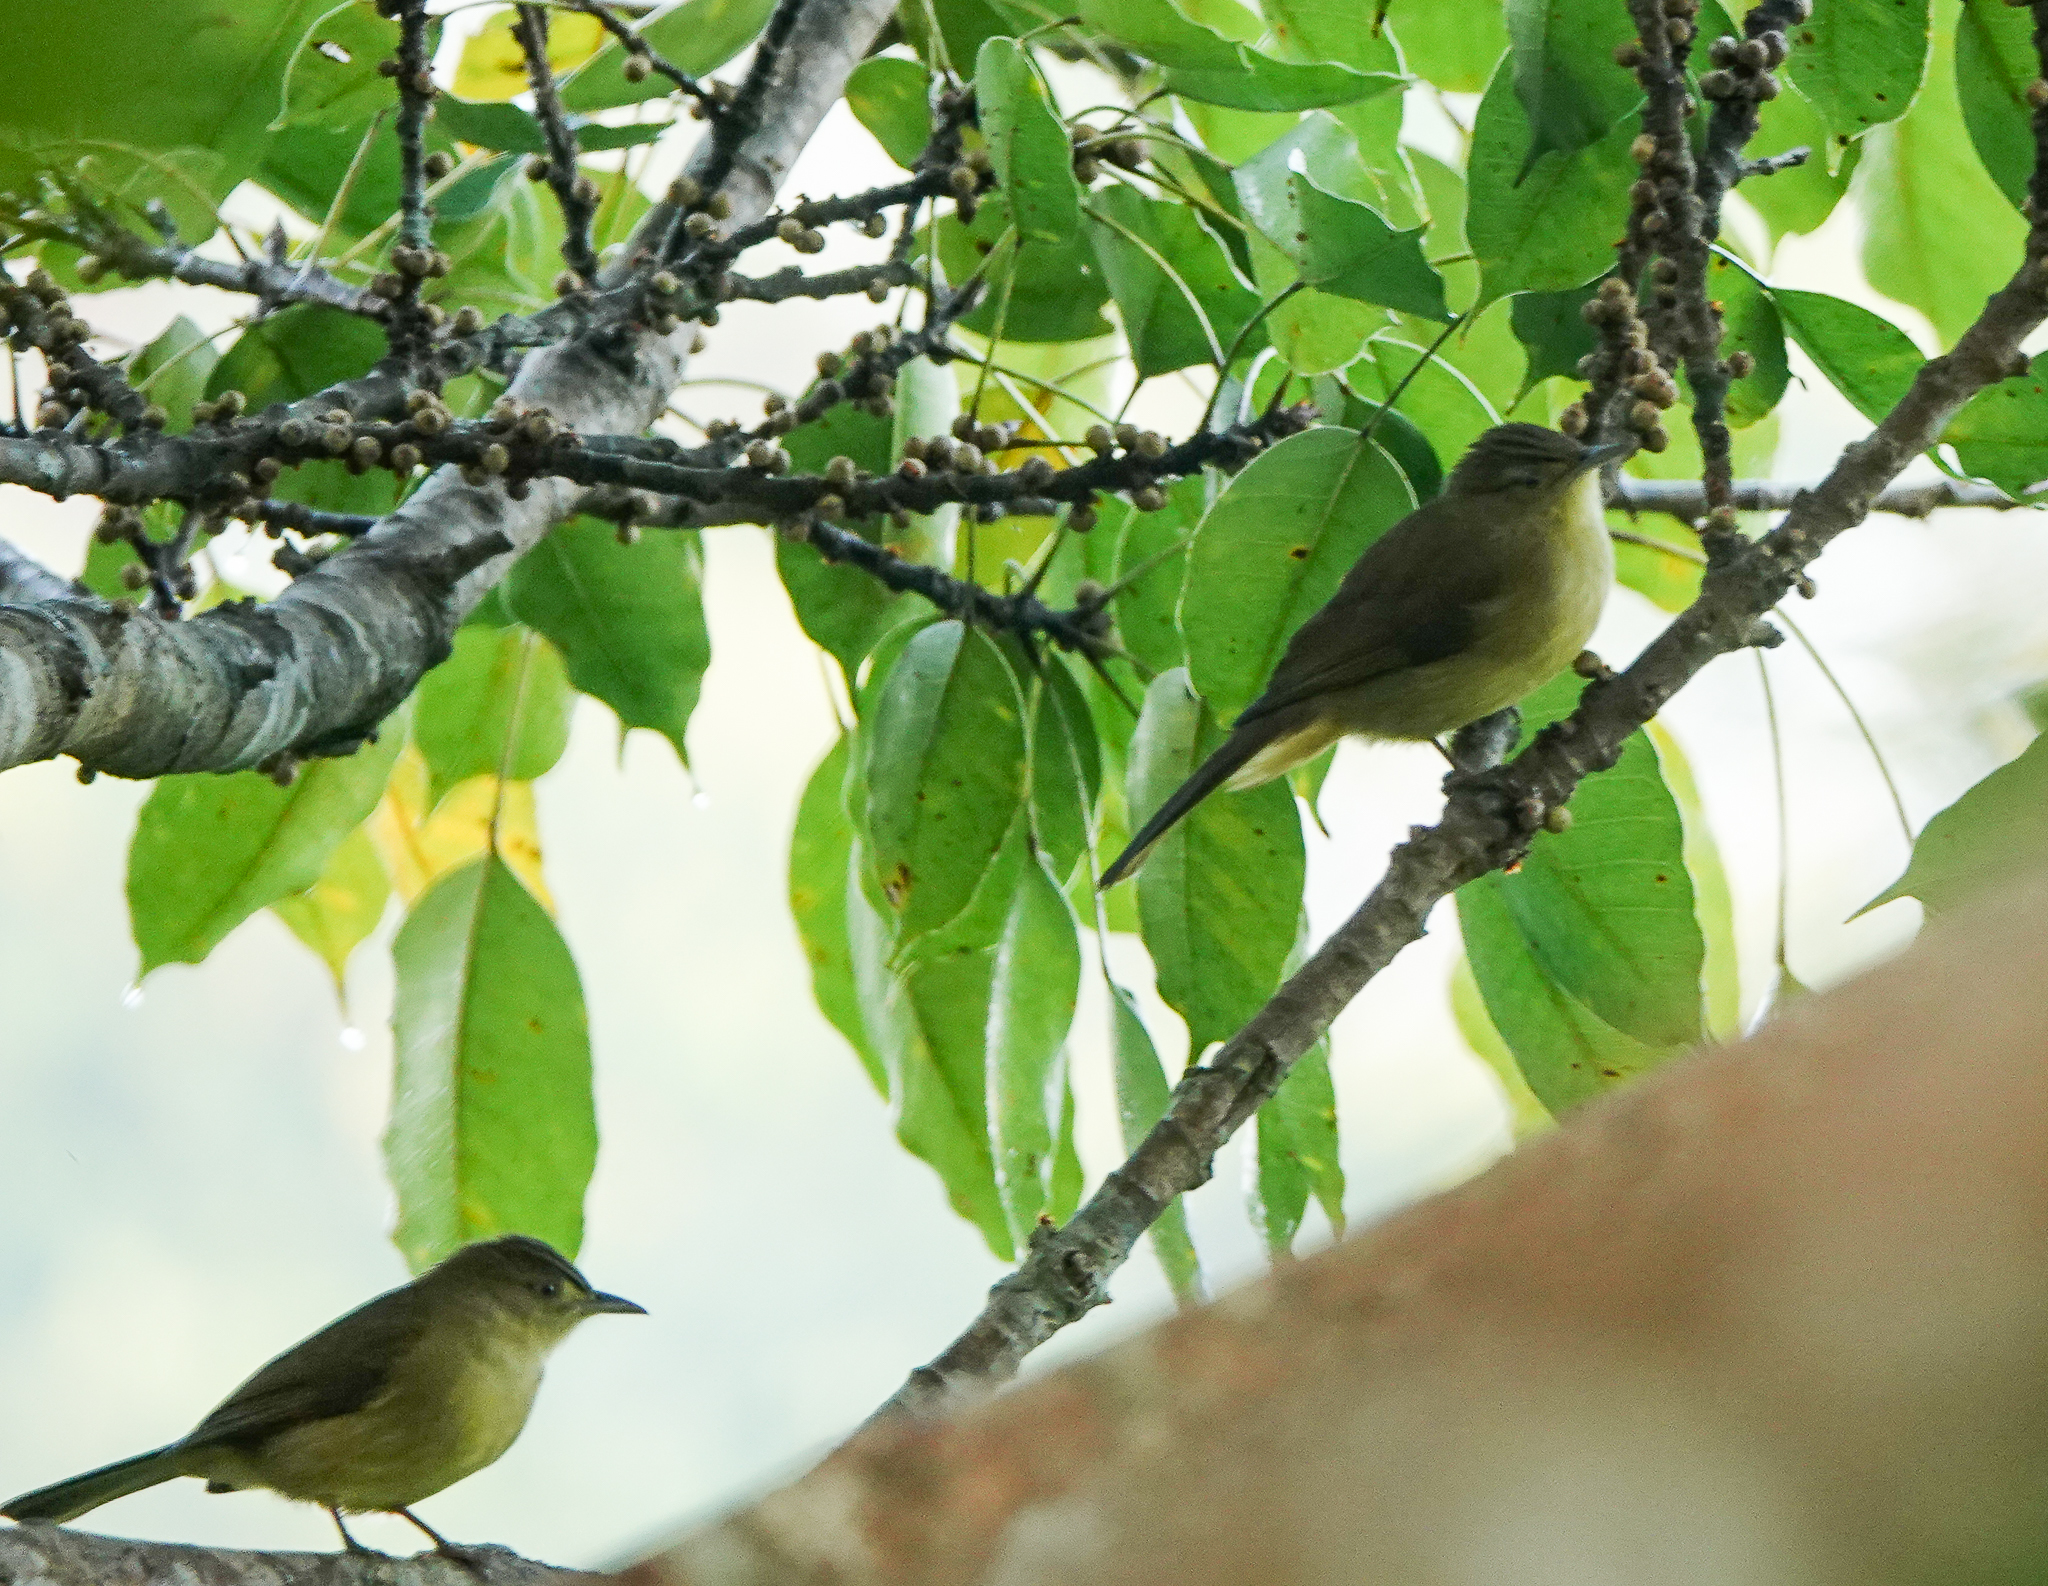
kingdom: Animalia
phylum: Chordata
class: Aves
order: Passeriformes
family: Pycnonotidae
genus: Iole
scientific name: Iole virescens
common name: Olive bulbul
